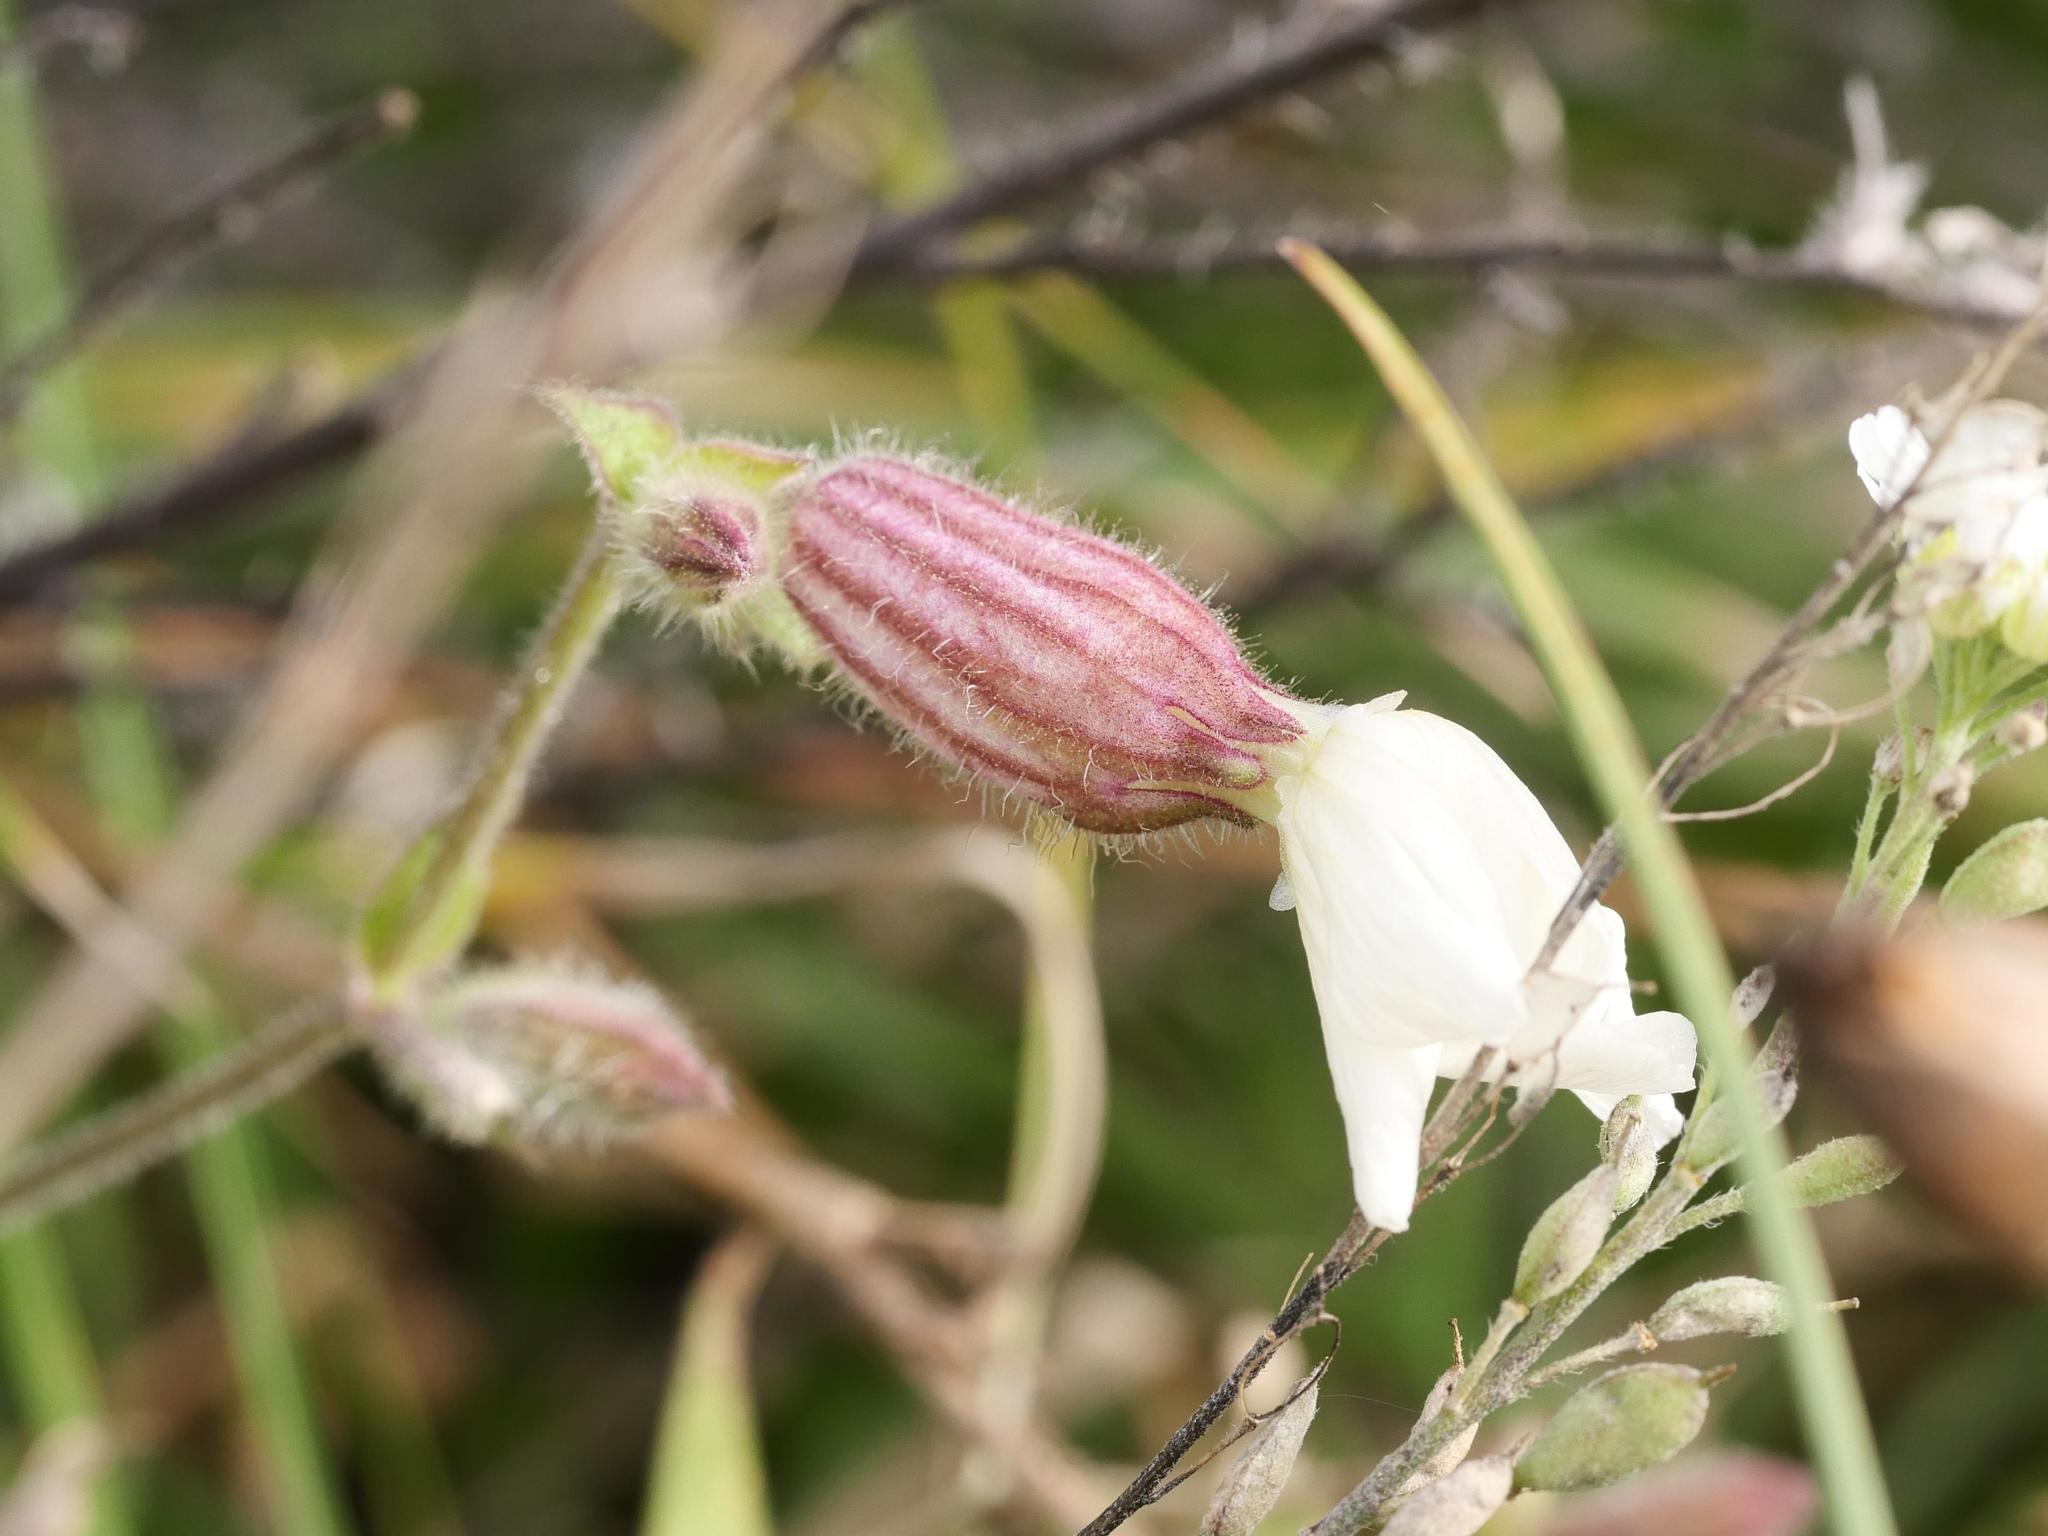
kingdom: Plantae
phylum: Tracheophyta
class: Magnoliopsida
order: Caryophyllales
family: Caryophyllaceae
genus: Silene
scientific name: Silene latifolia
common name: White campion
